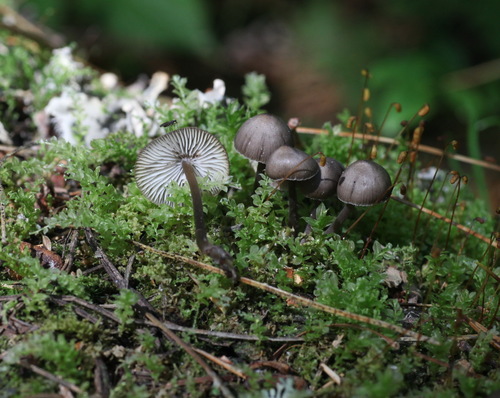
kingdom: Fungi
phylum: Basidiomycota
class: Agaricomycetes
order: Agaricales
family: Mycenaceae
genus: Mycena
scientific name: Mycena
